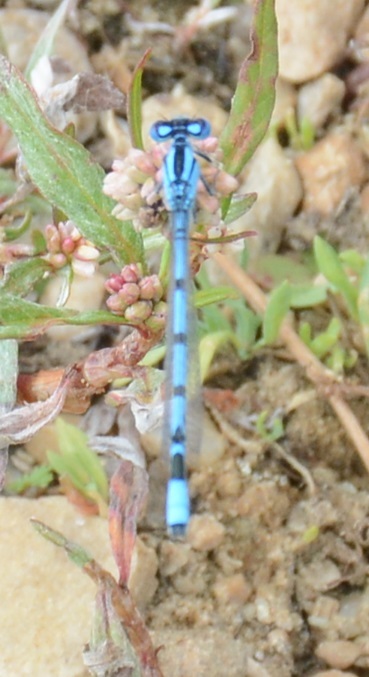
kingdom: Animalia
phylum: Arthropoda
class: Insecta
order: Odonata
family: Coenagrionidae
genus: Enallagma
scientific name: Enallagma cyathigerum
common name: Common blue damselfly
